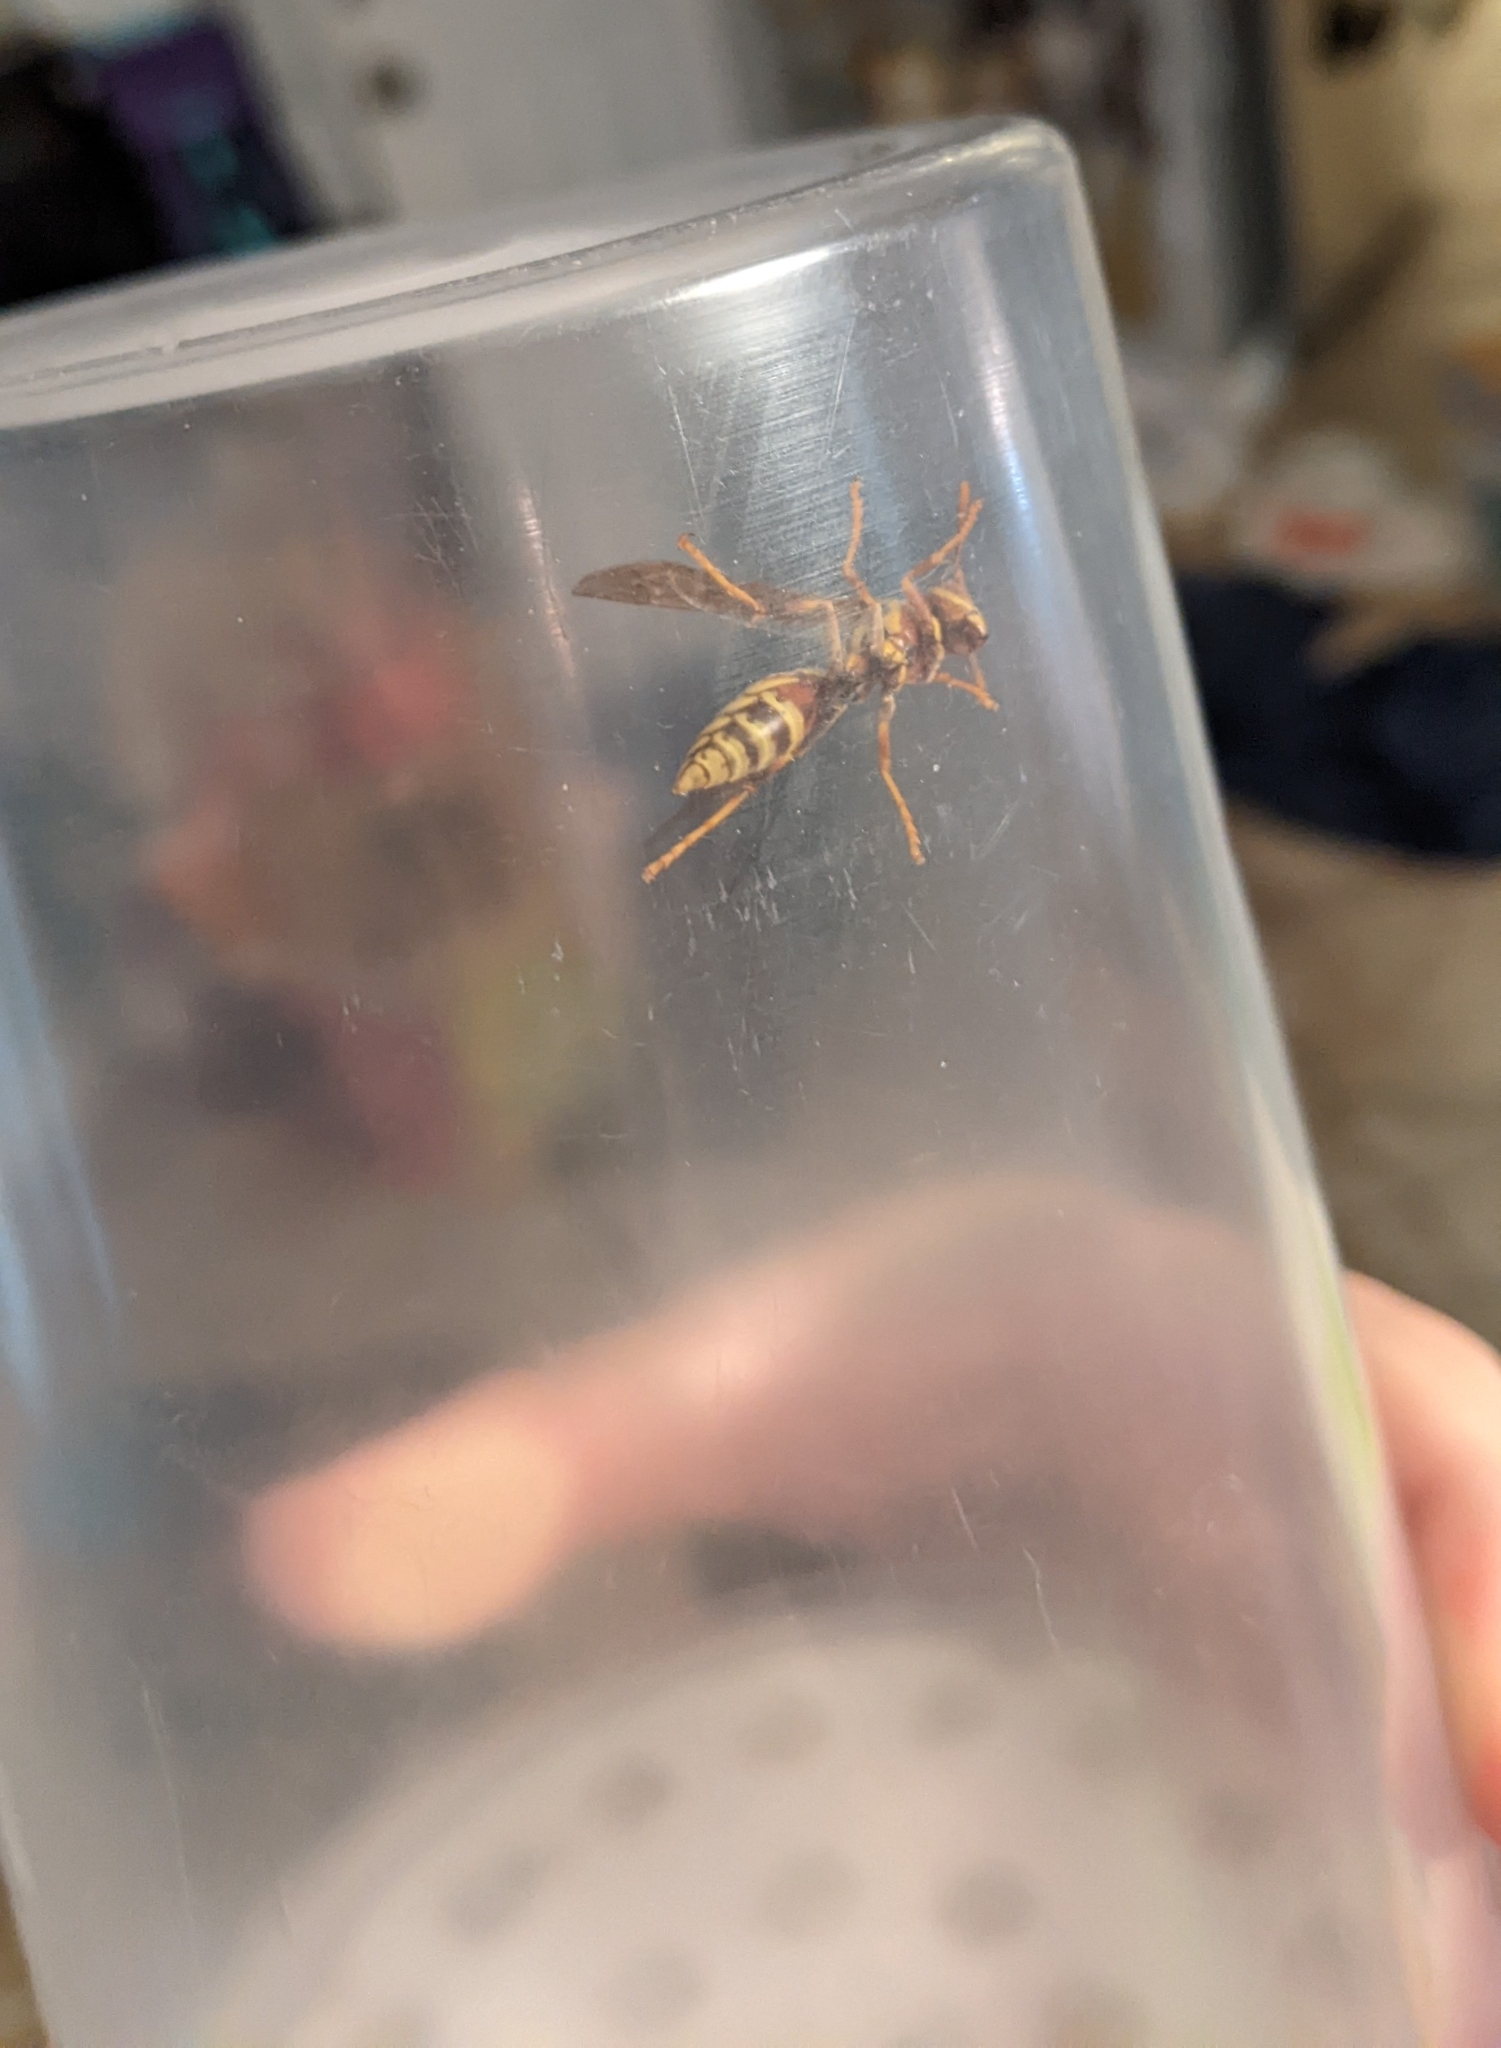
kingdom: Animalia
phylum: Arthropoda
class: Insecta
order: Hymenoptera
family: Eumenidae
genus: Polistes
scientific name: Polistes exclamans
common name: Paper wasp
